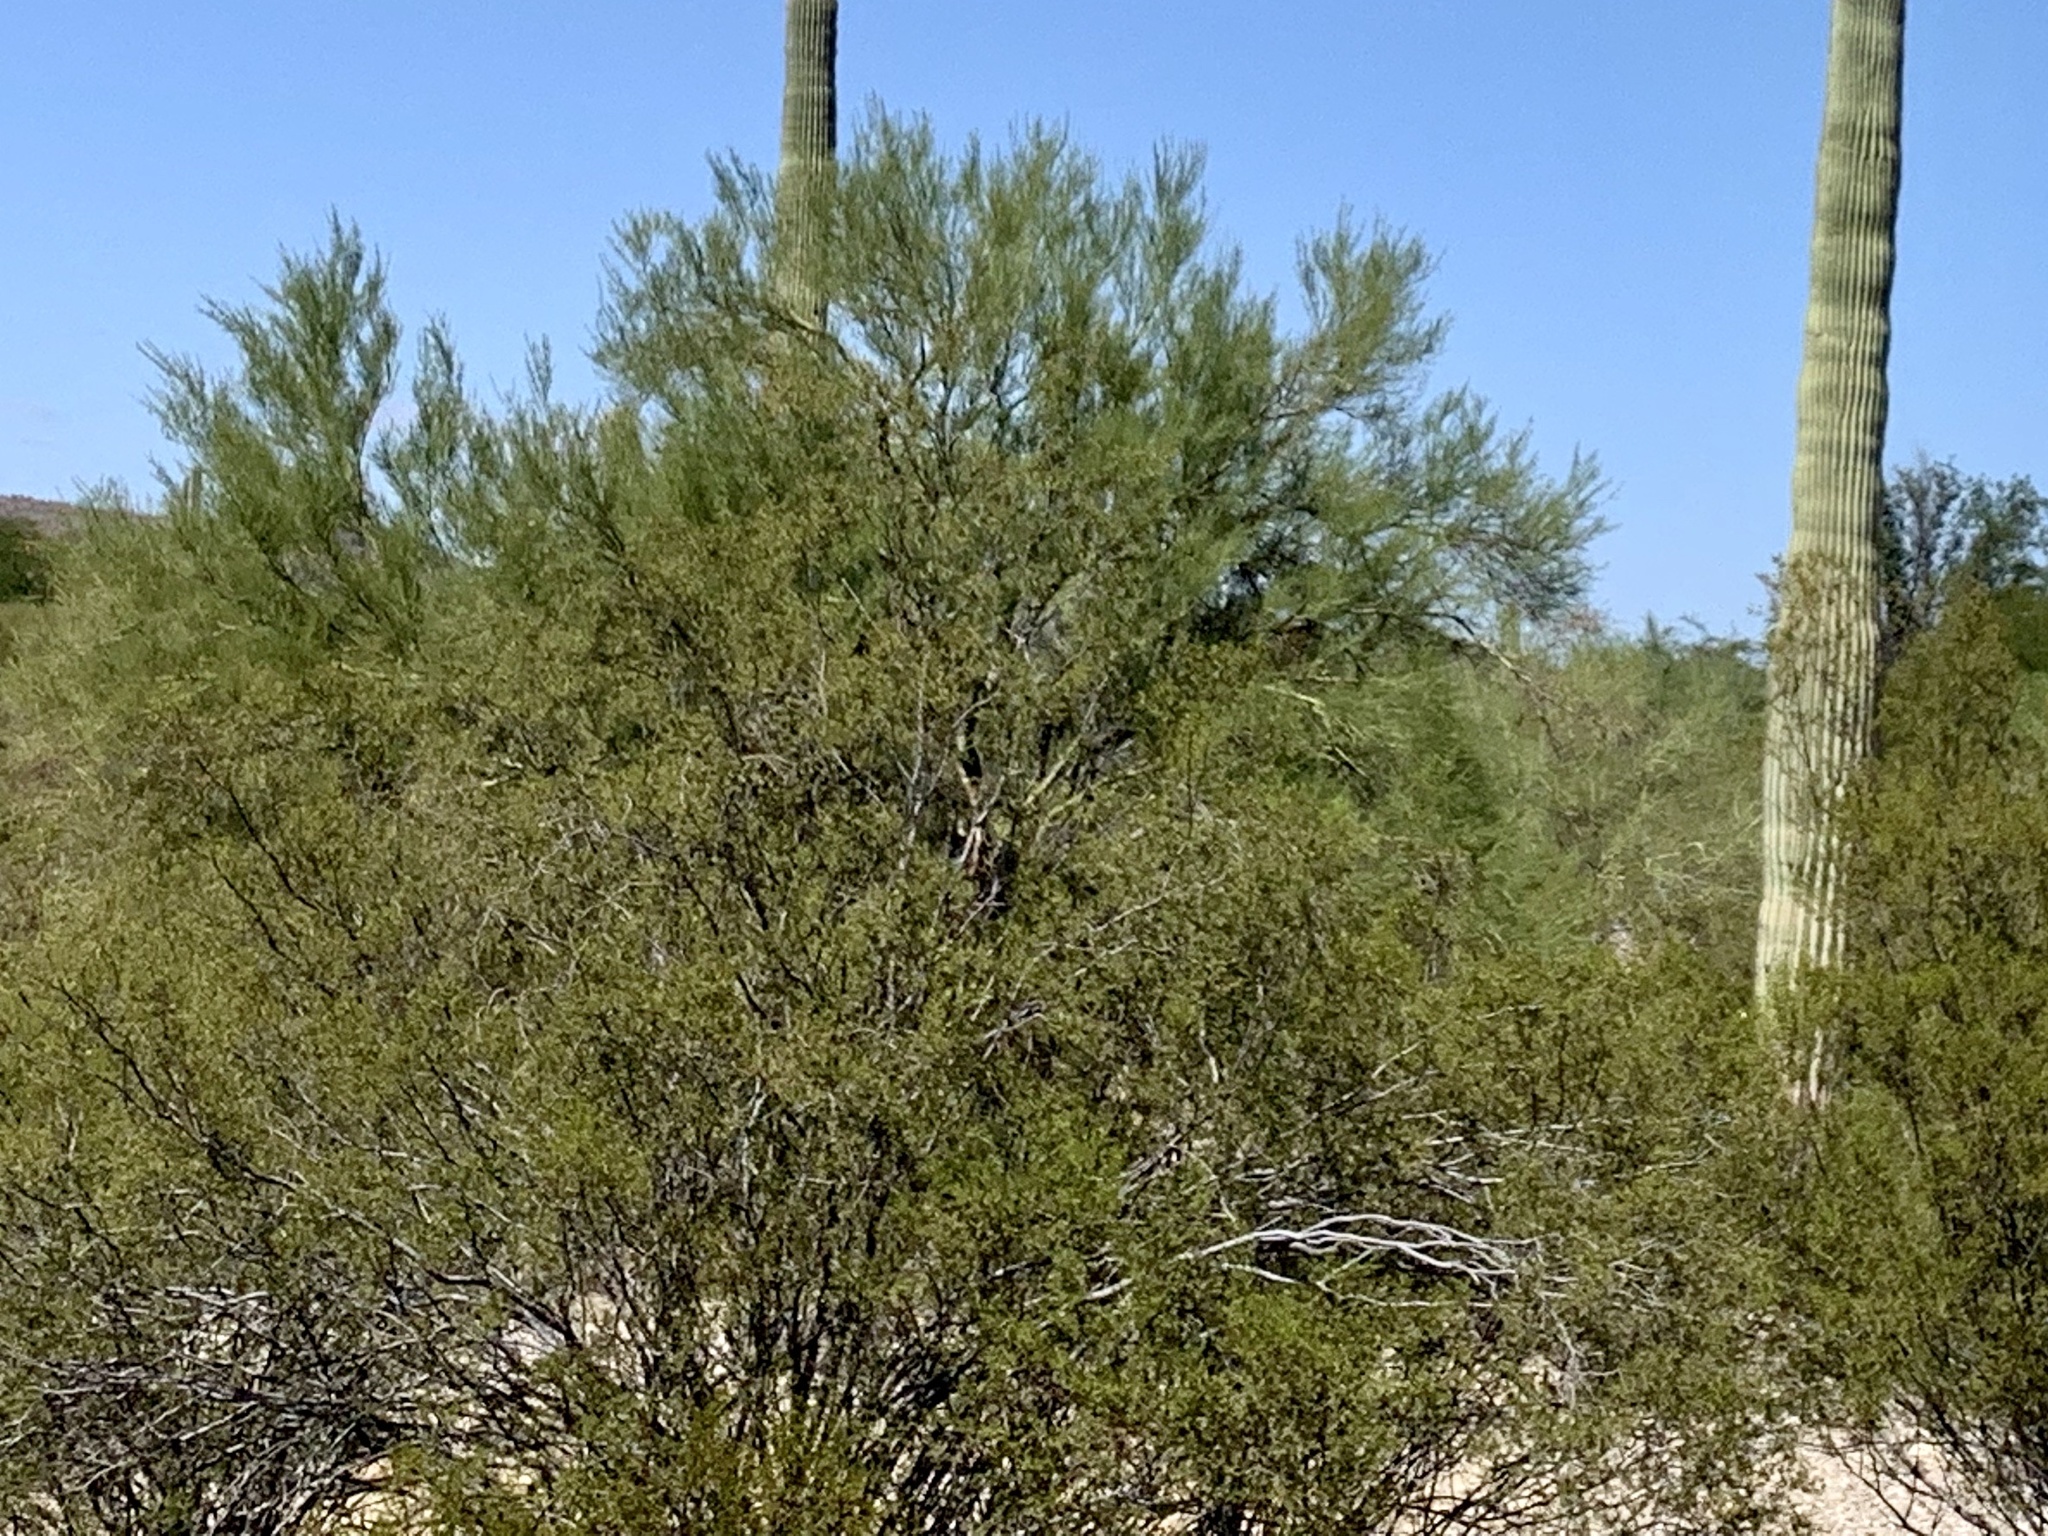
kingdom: Plantae
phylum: Tracheophyta
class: Magnoliopsida
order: Zygophyllales
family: Zygophyllaceae
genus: Larrea
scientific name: Larrea tridentata
